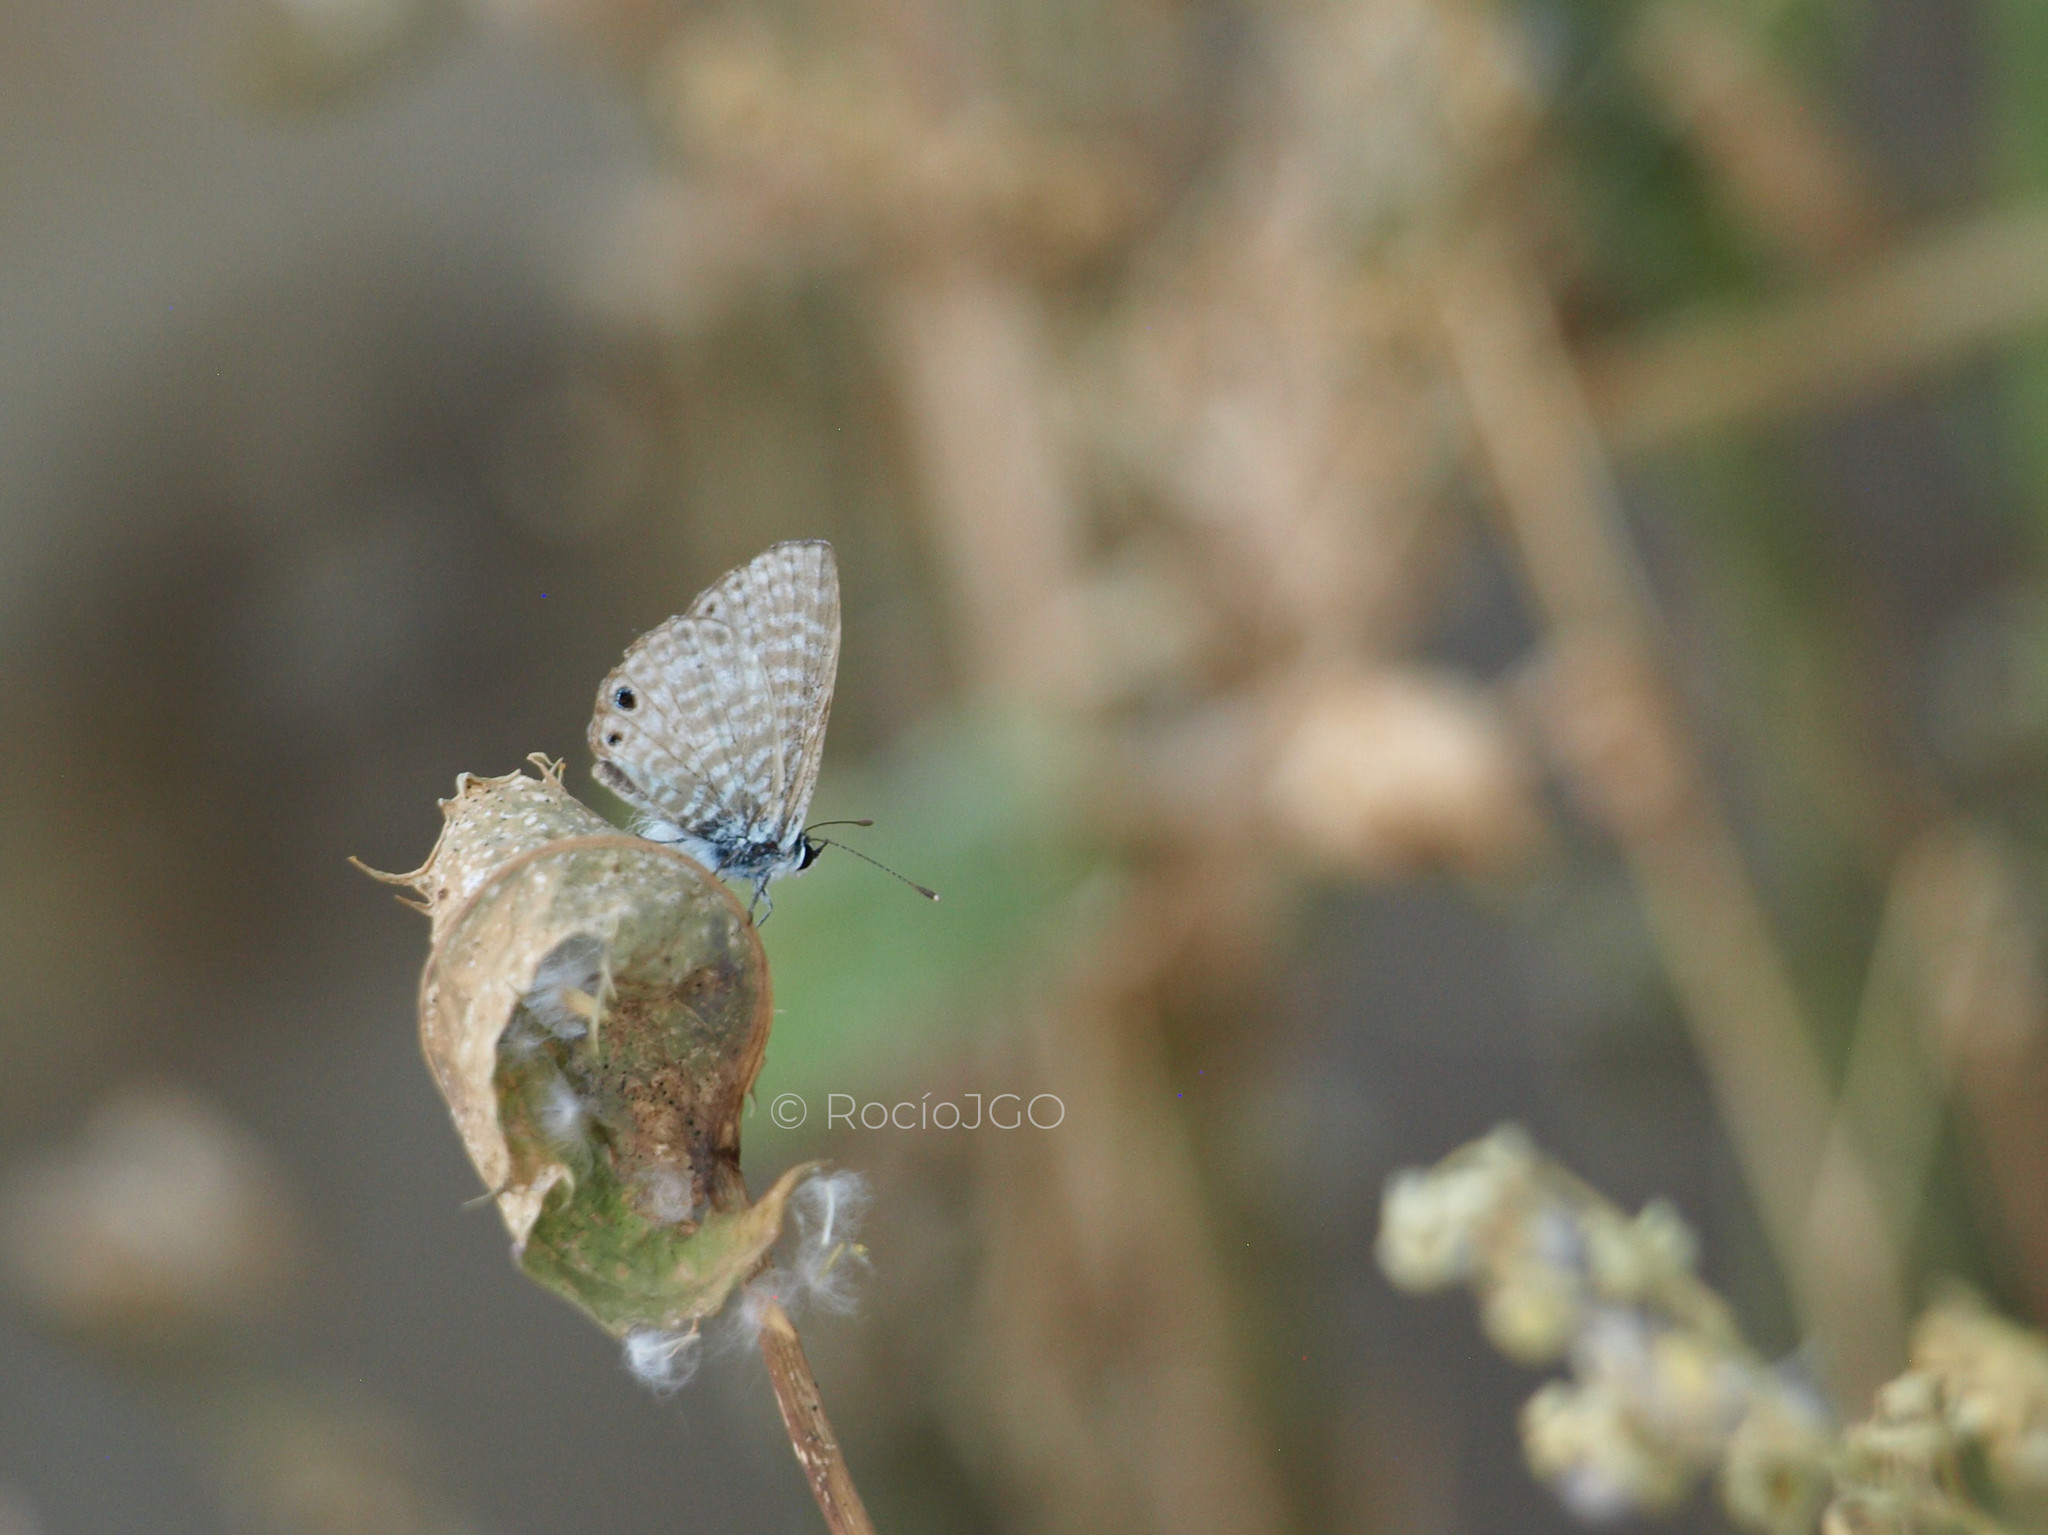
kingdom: Animalia
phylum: Arthropoda
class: Insecta
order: Lepidoptera
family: Lycaenidae
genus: Leptotes
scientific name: Leptotes marina
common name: Marine blue
